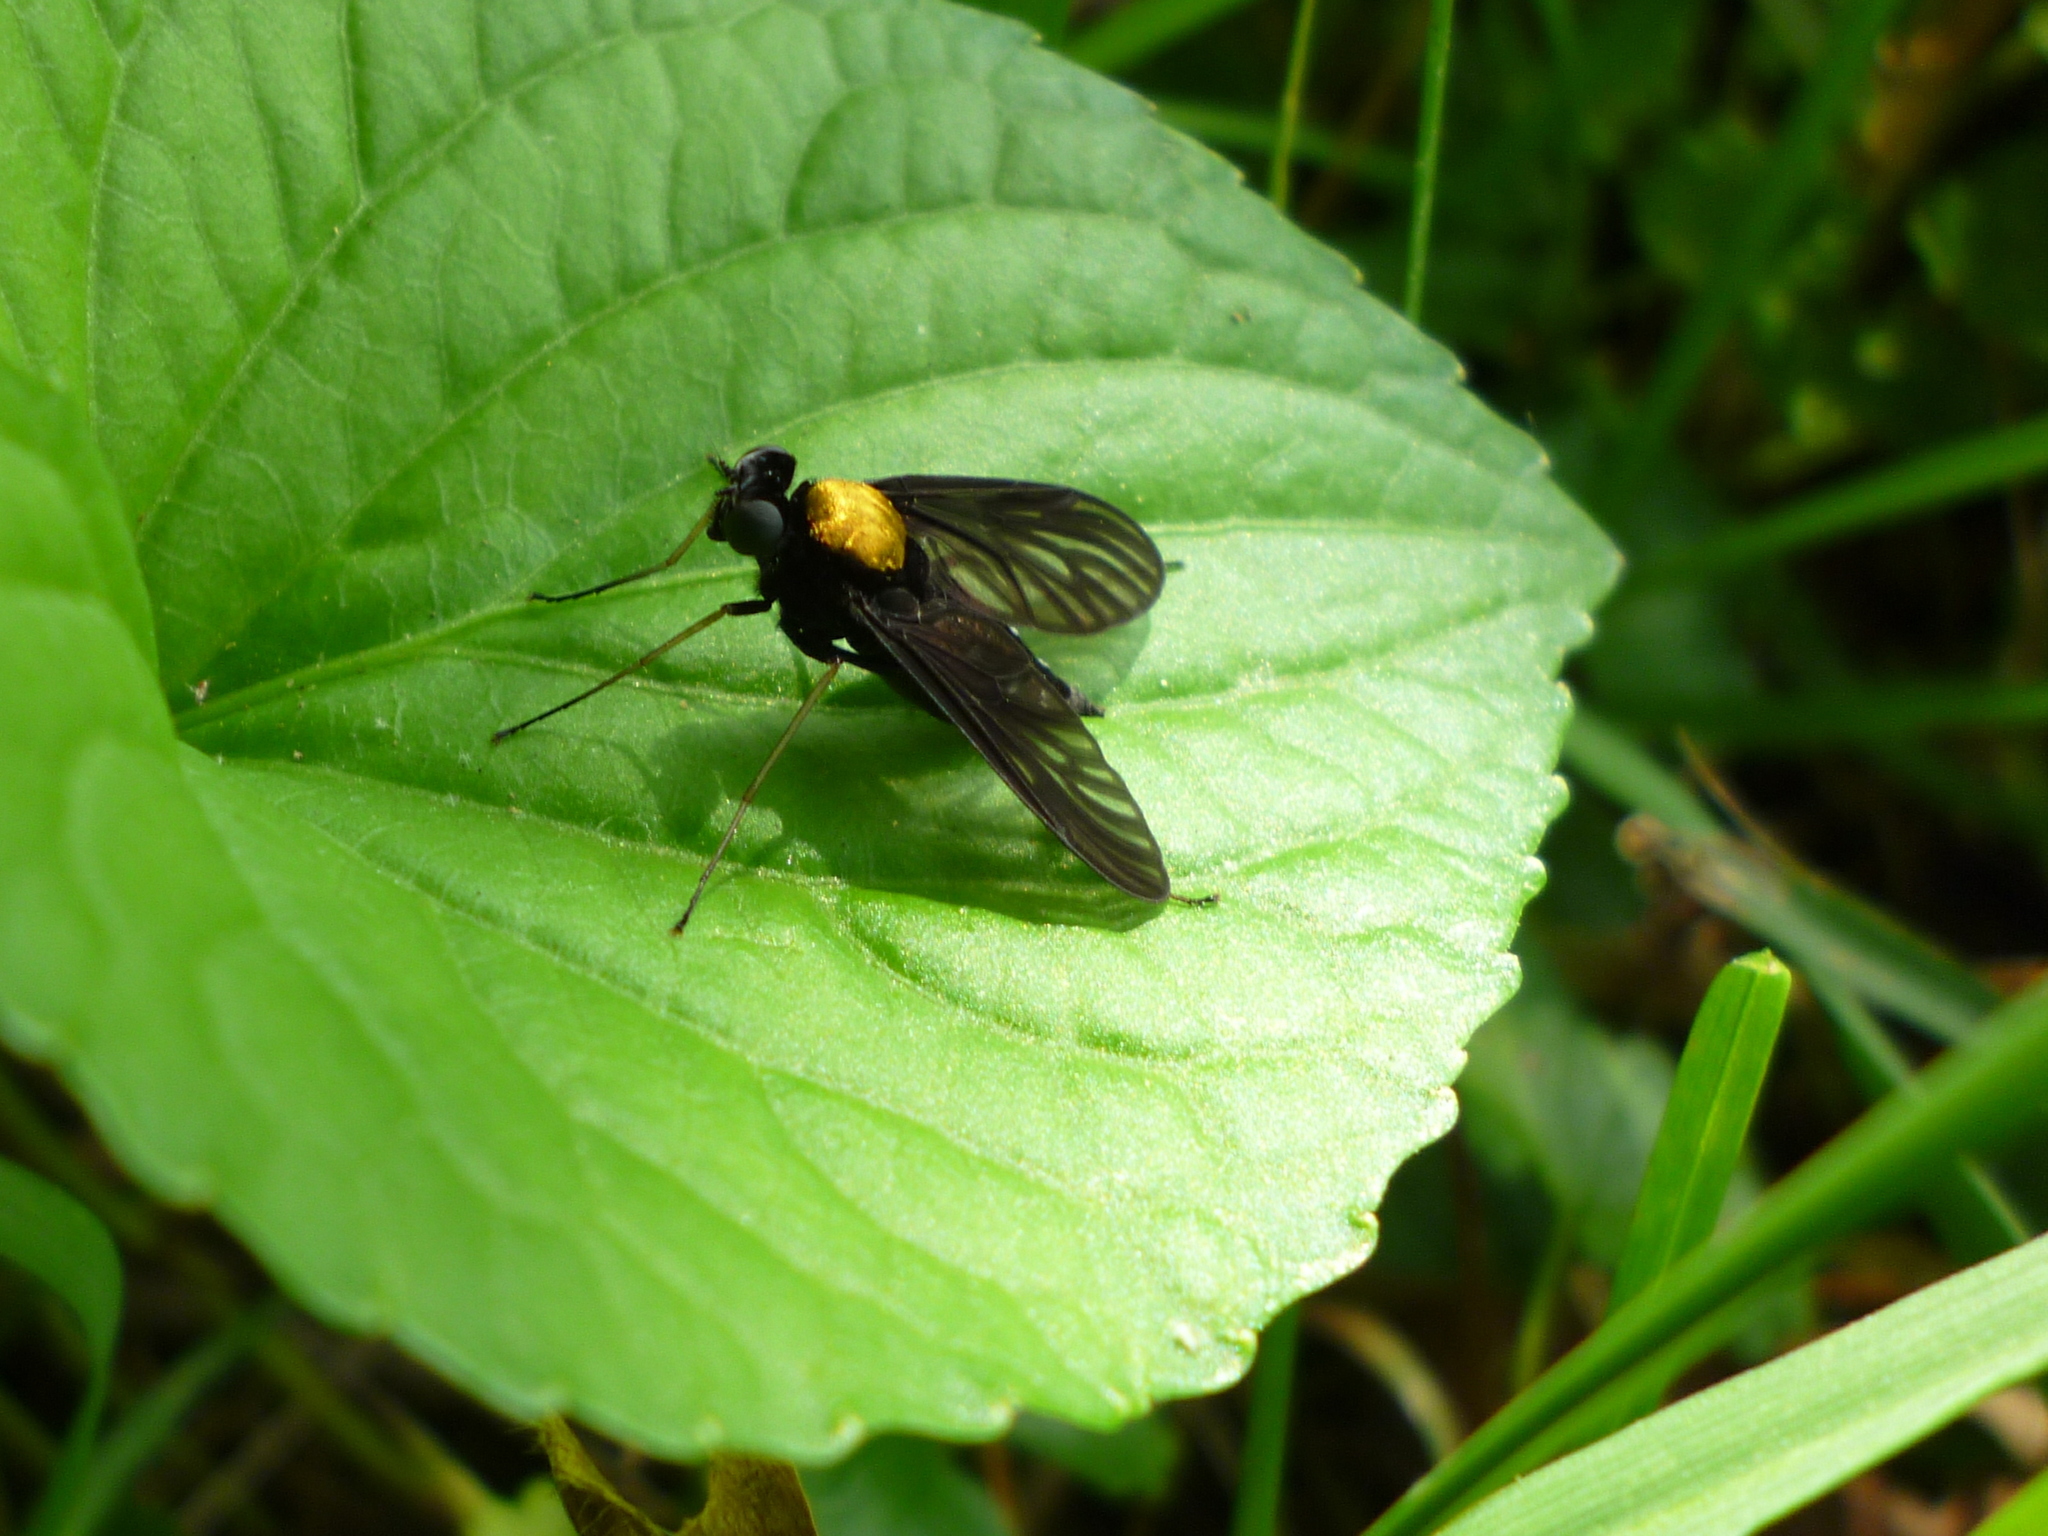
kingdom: Animalia
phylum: Arthropoda
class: Insecta
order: Diptera
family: Rhagionidae
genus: Chrysopilus
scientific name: Chrysopilus thoracicus
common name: Golden-backed snipe fly
